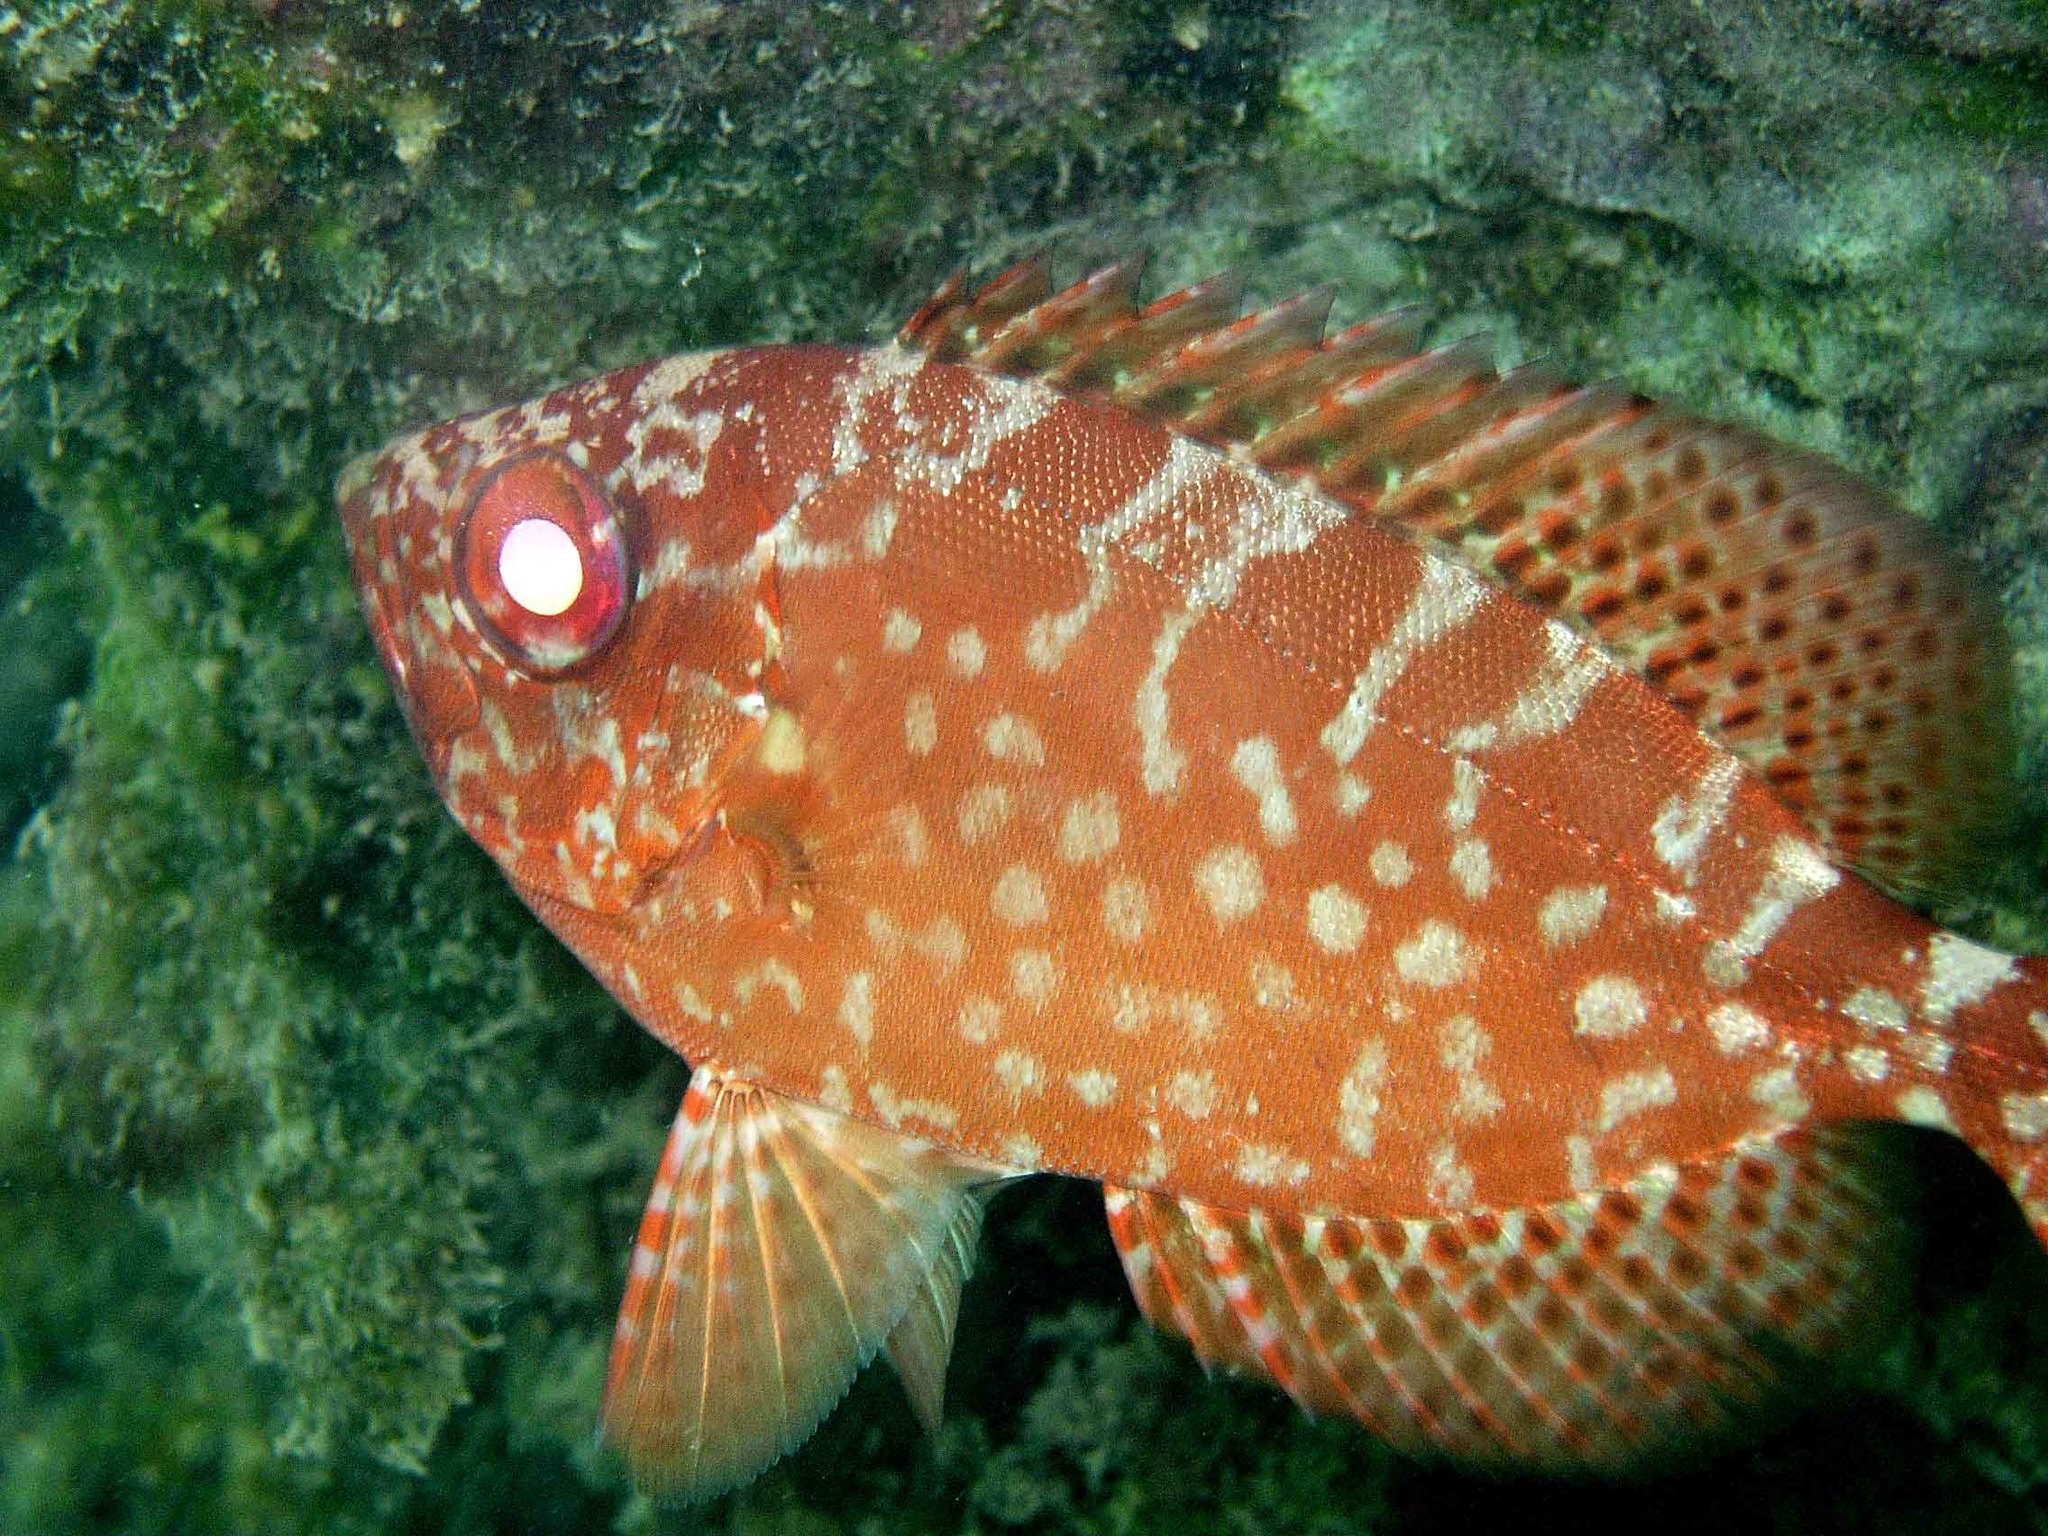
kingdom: Animalia
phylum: Chordata
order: Perciformes
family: Priacanthidae
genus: Heteropriacanthus
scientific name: Heteropriacanthus cruentatus
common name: Glasseye
